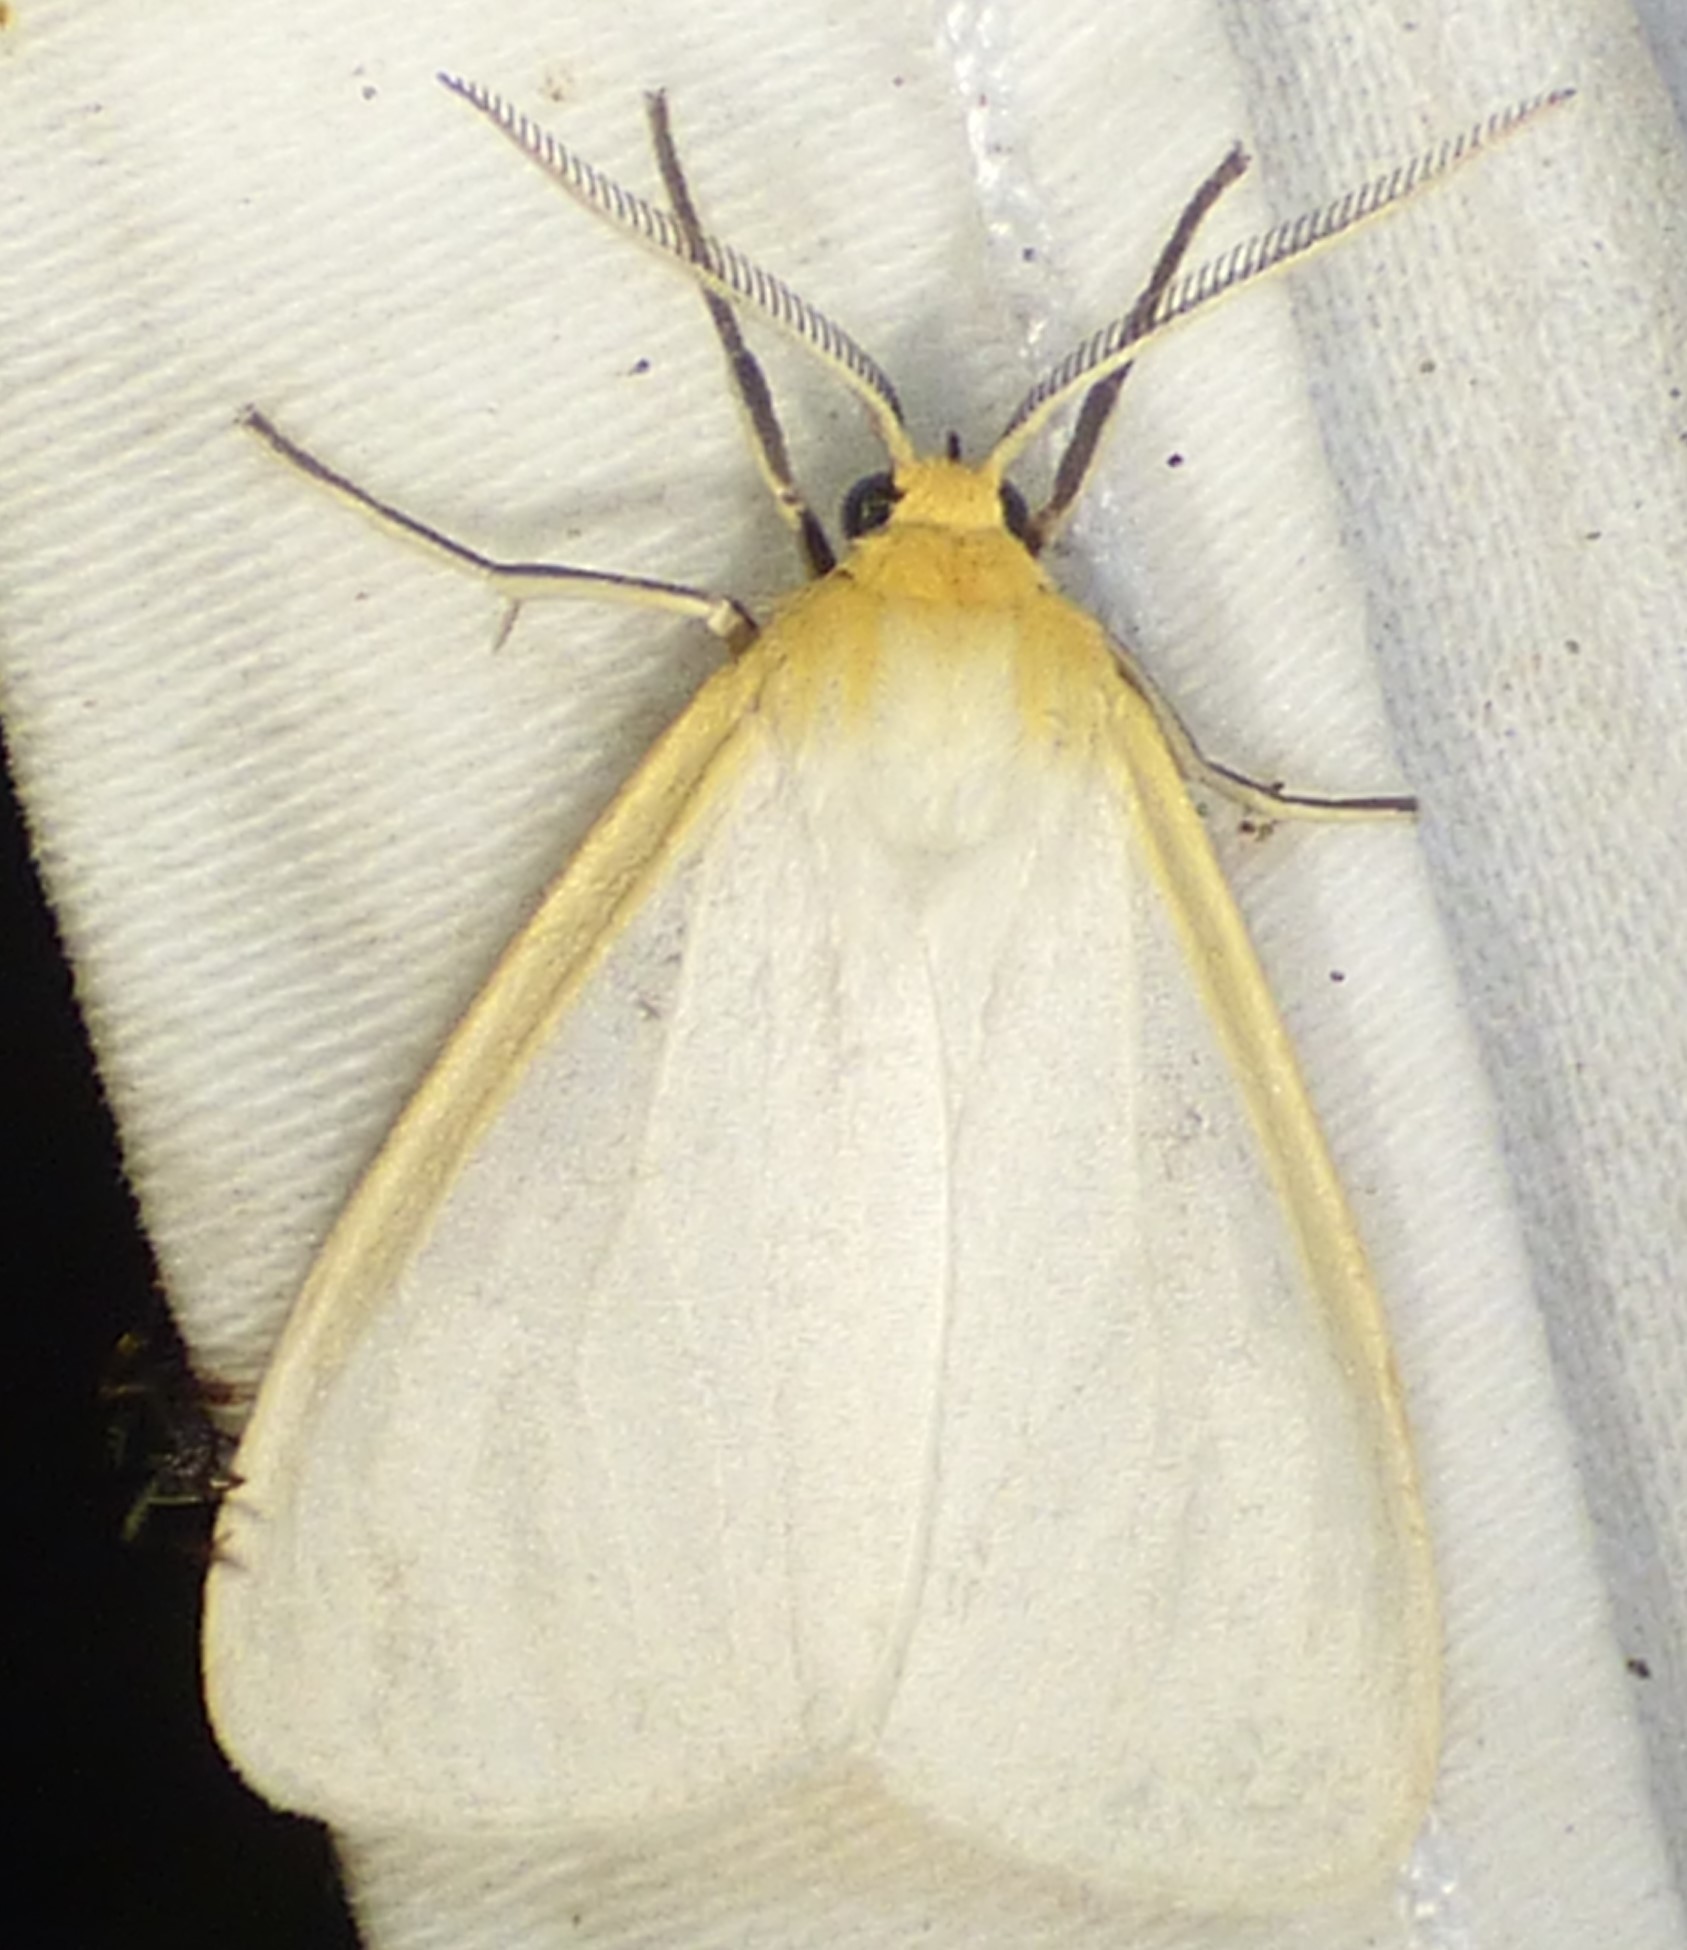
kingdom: Animalia
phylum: Arthropoda
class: Insecta
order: Lepidoptera
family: Erebidae
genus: Cycnia
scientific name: Cycnia tenera
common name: Delicate cycnia moth
